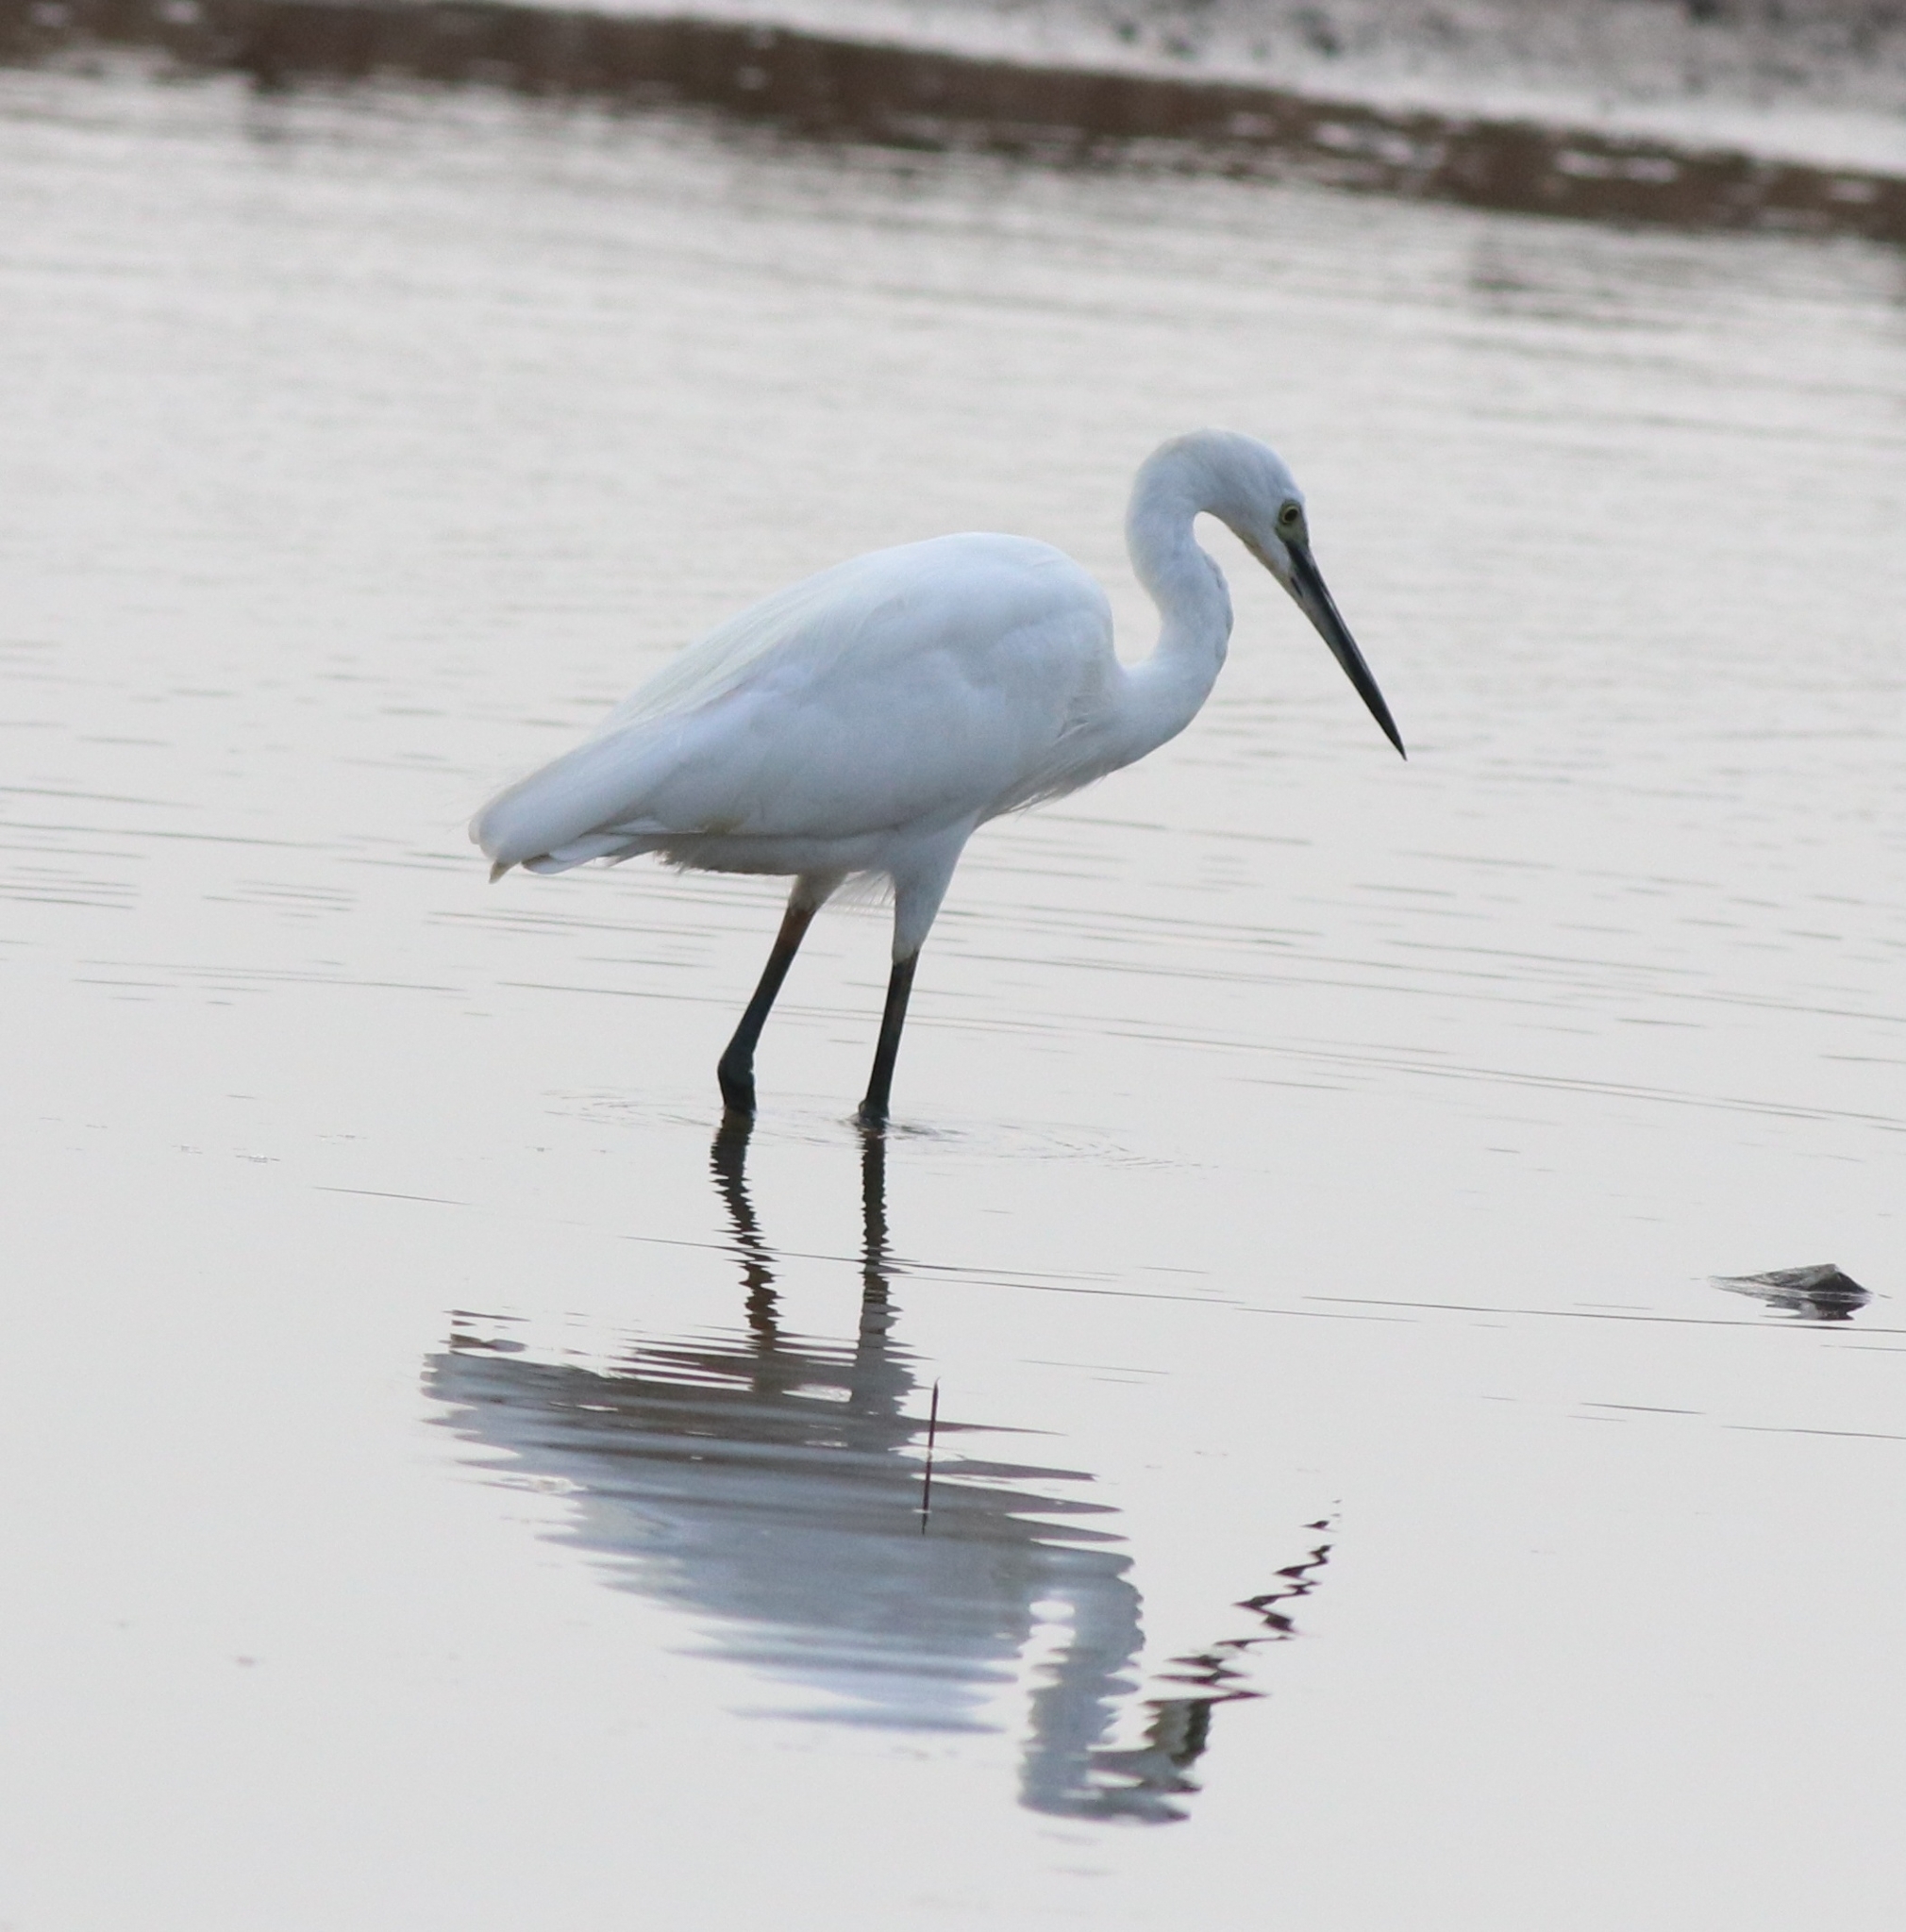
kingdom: Animalia
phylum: Chordata
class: Aves
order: Pelecaniformes
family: Ardeidae
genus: Egretta
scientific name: Egretta garzetta
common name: Little egret
